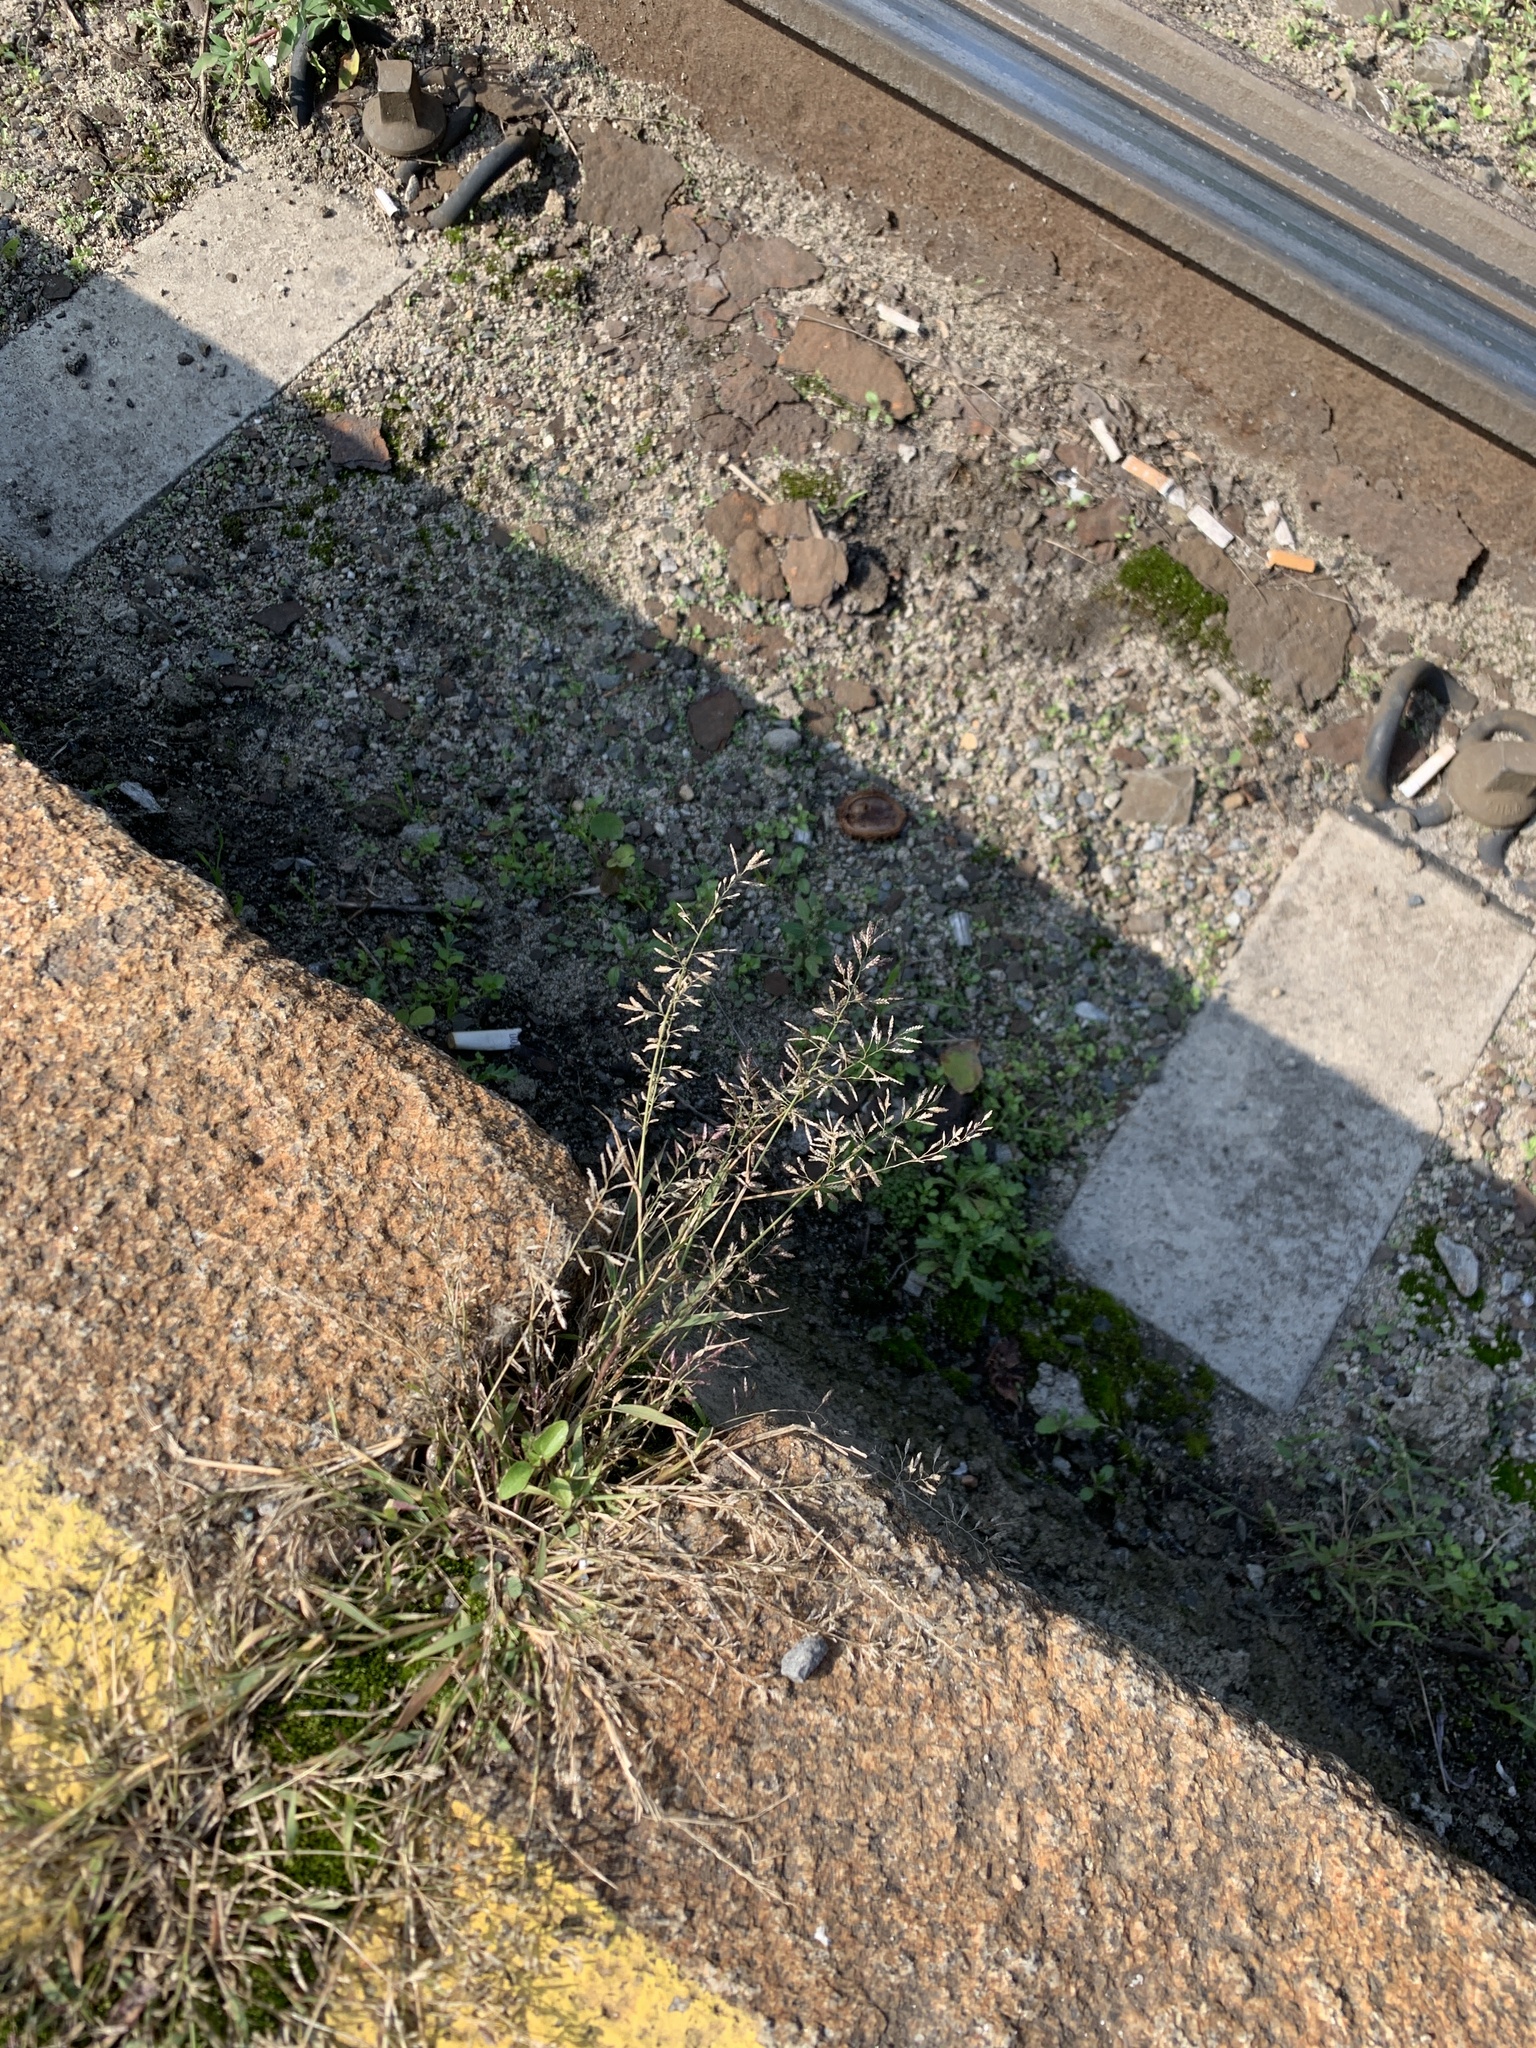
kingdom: Plantae
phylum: Tracheophyta
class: Liliopsida
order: Poales
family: Poaceae
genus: Eragrostis
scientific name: Eragrostis minor
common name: Small love-grass
